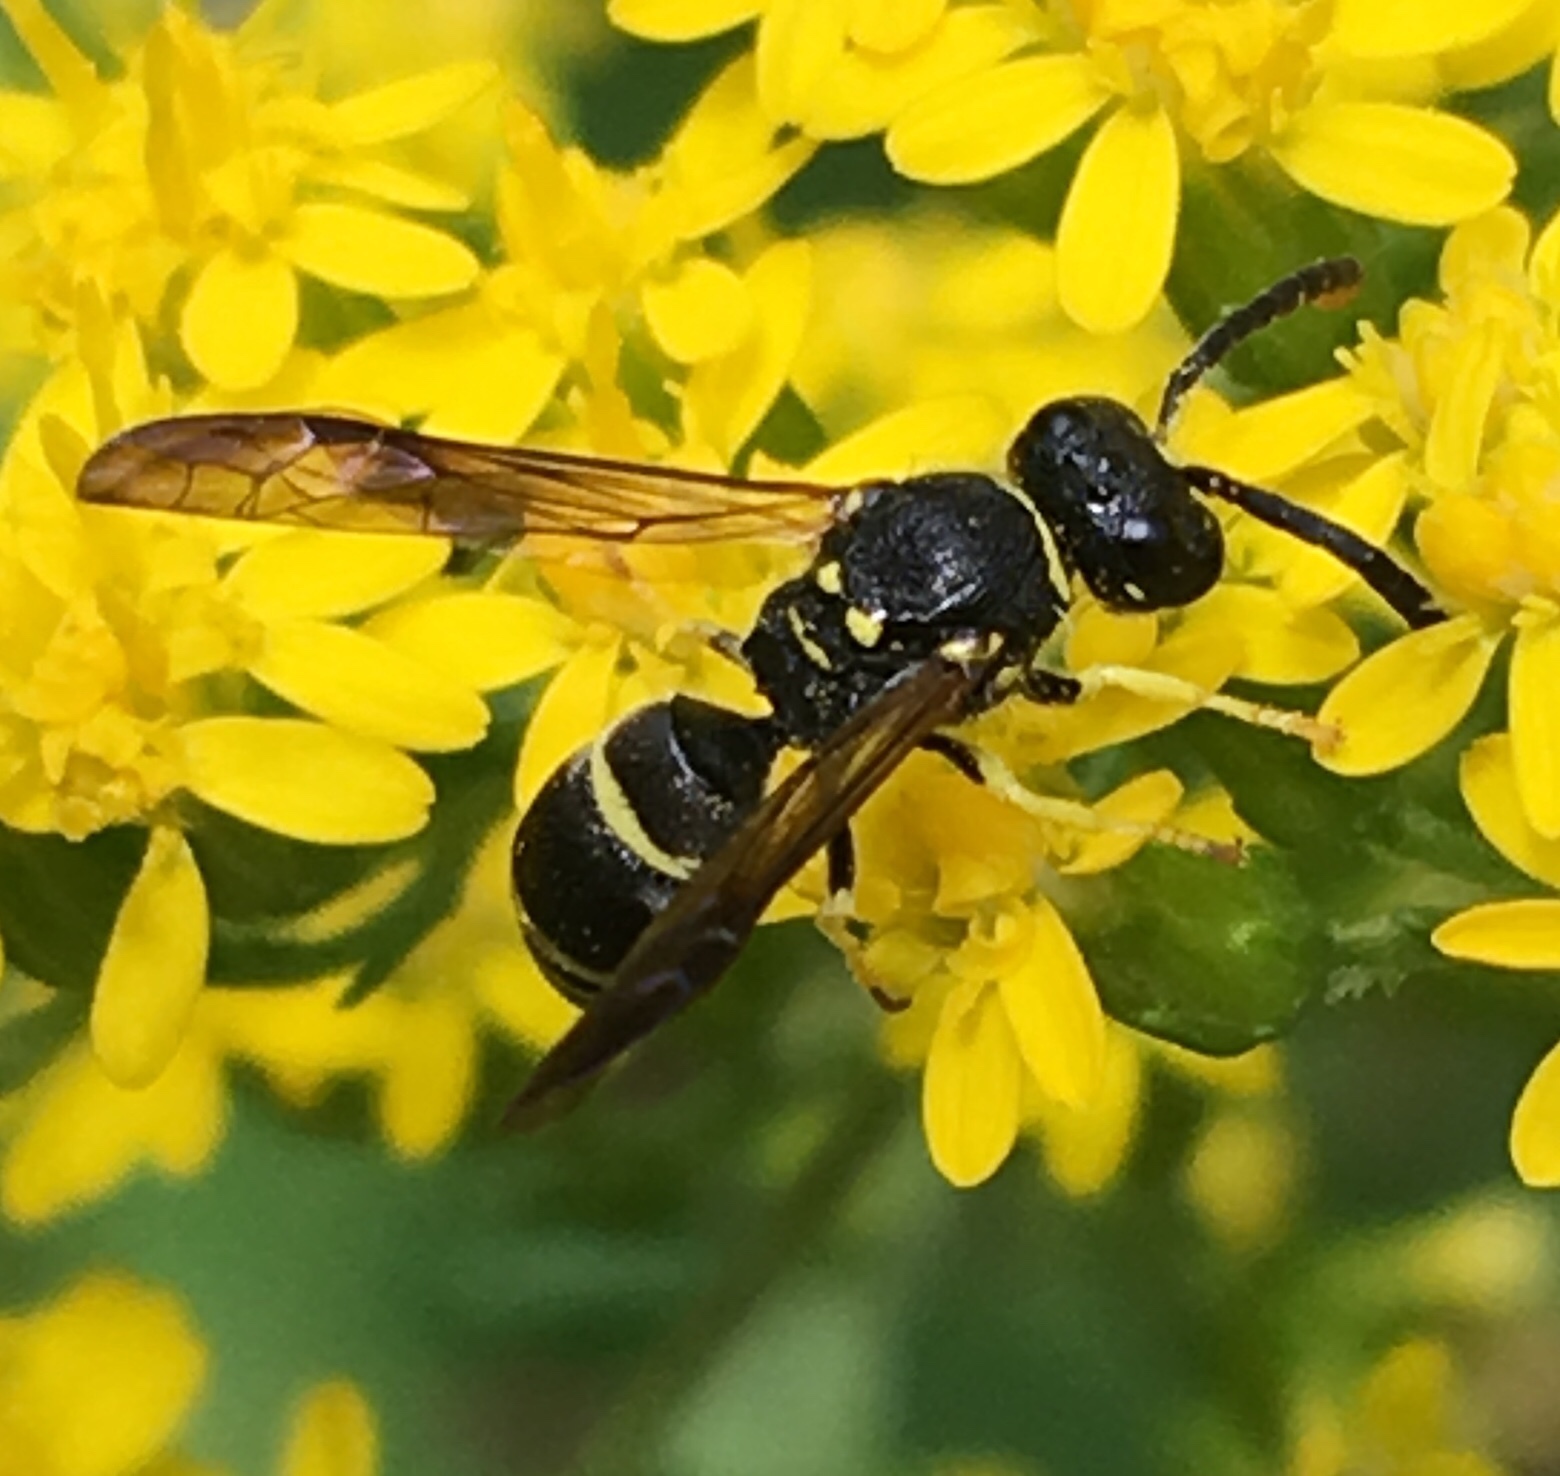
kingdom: Animalia
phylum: Arthropoda
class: Insecta
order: Hymenoptera
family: Vespidae
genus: Ancistrocerus
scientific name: Ancistrocerus adiabatus
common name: Bramble mason wasp
